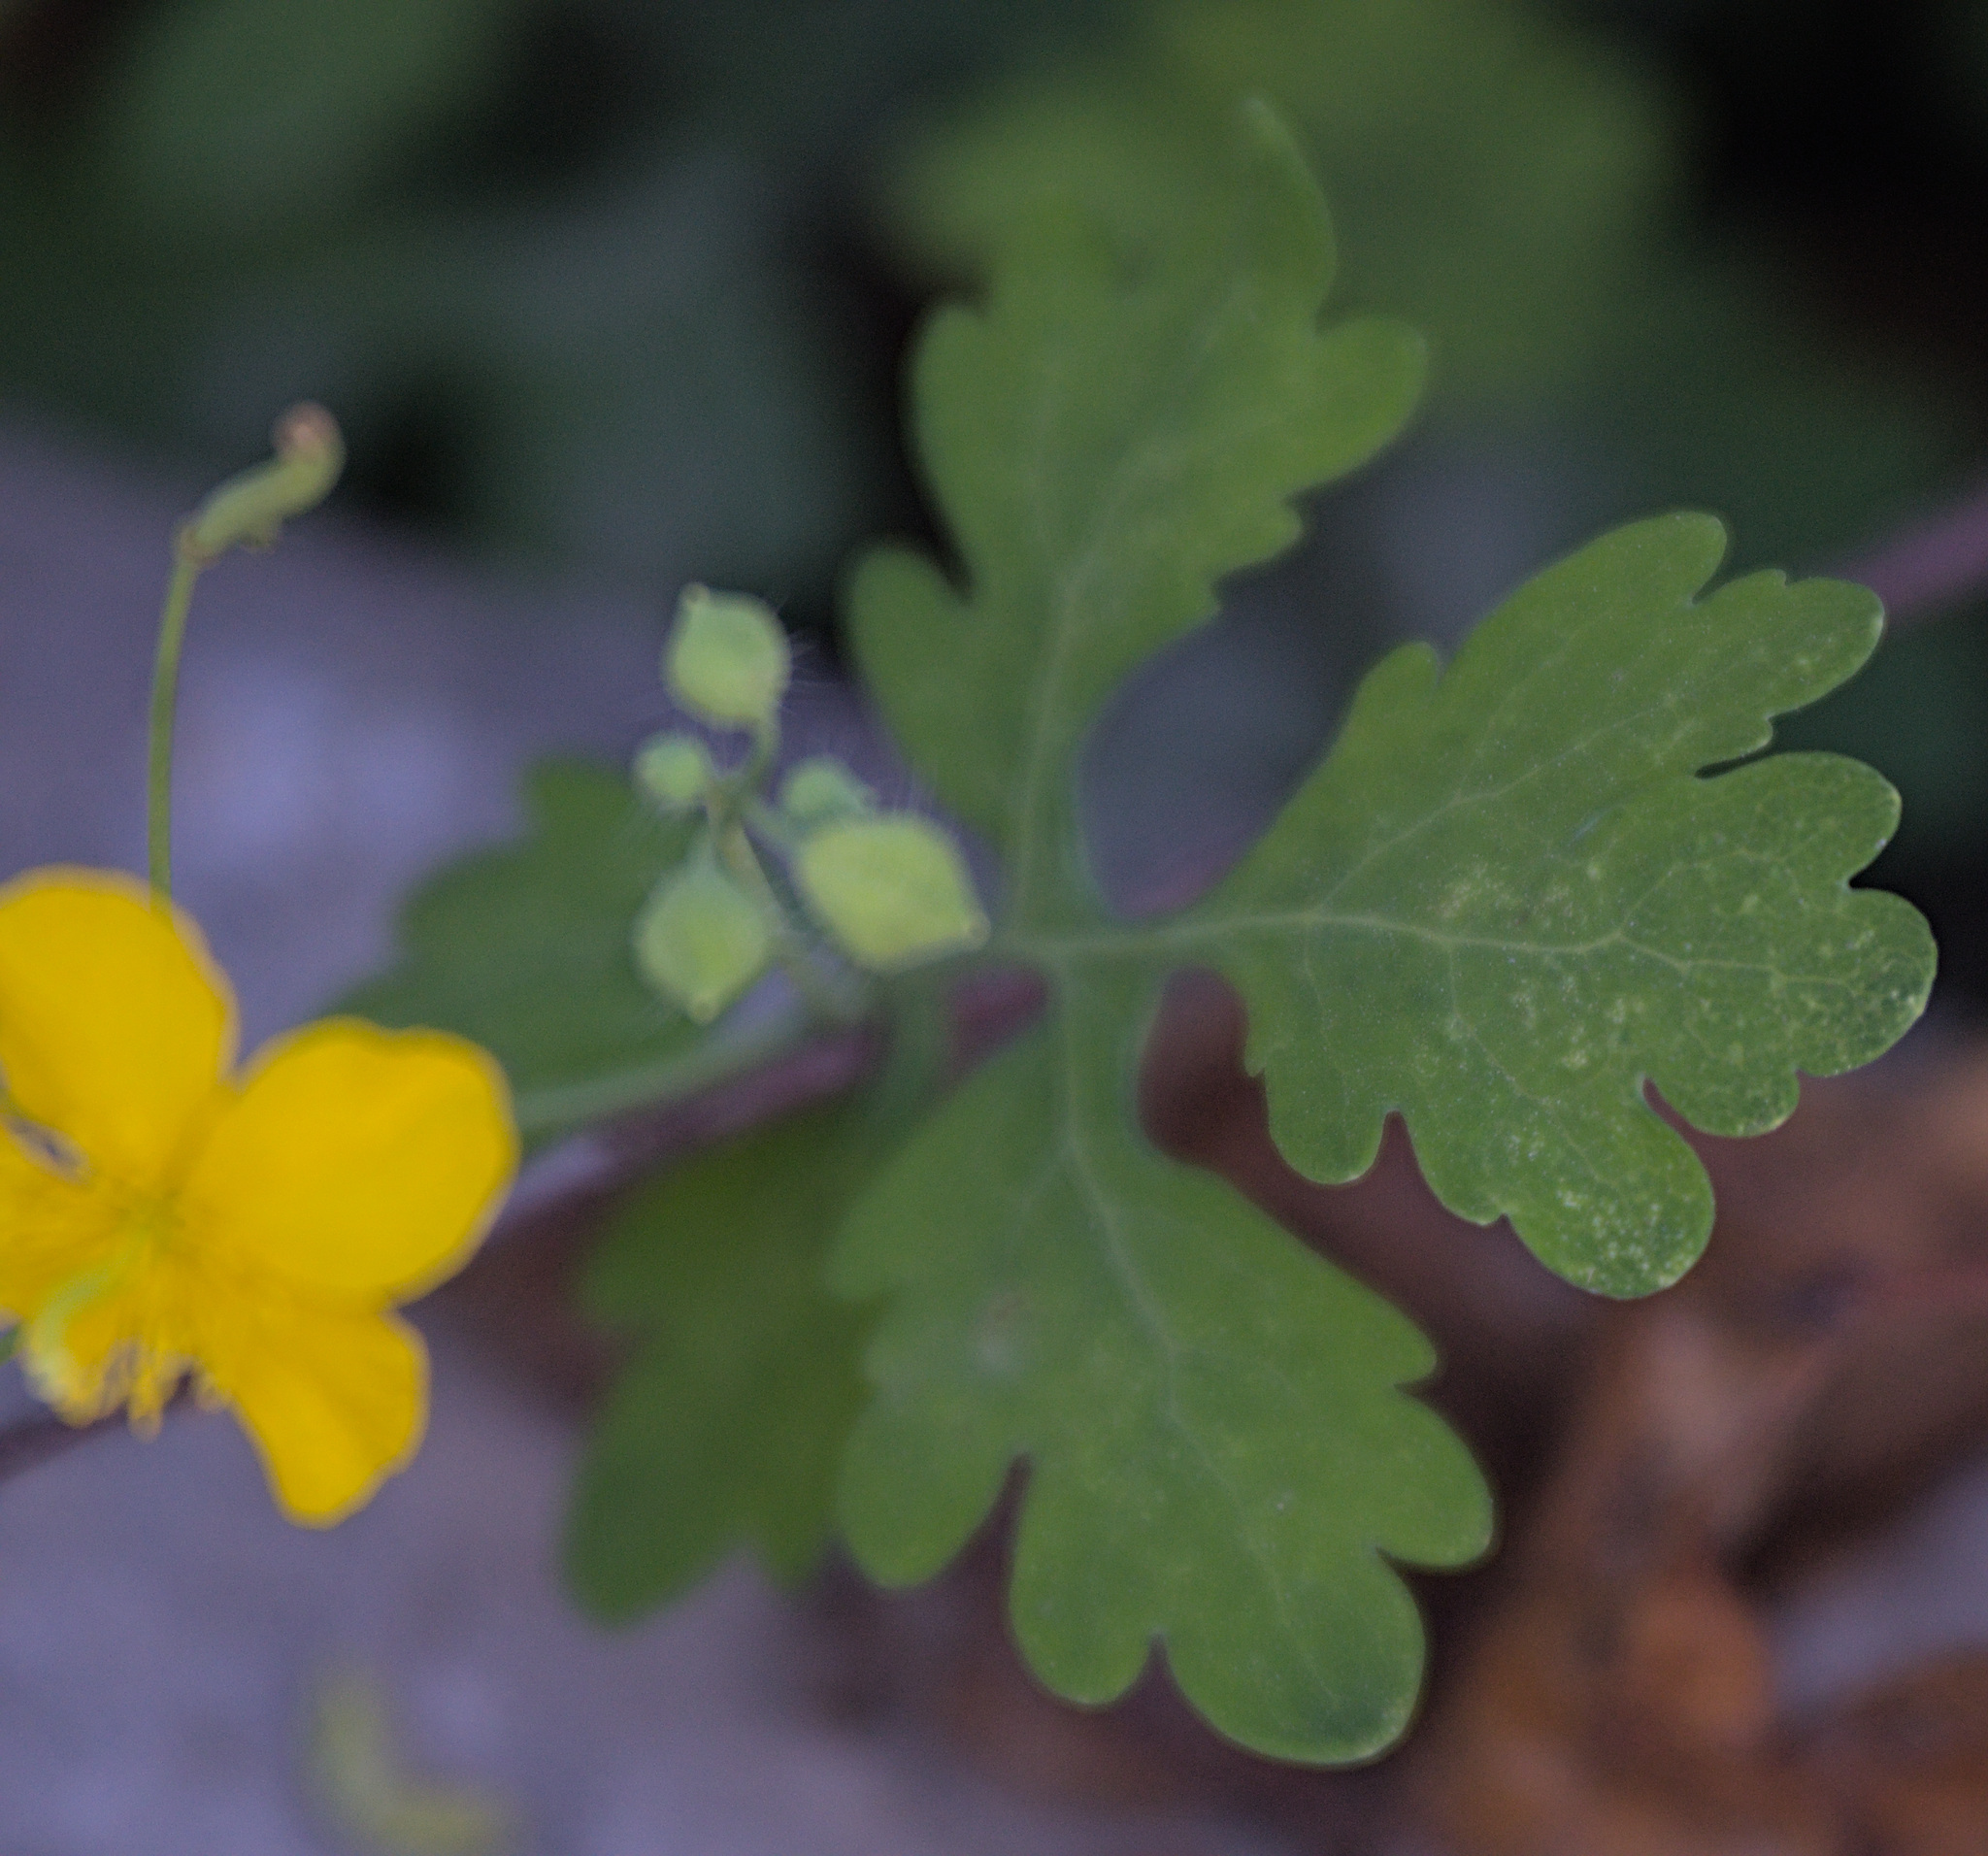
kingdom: Plantae
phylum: Tracheophyta
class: Magnoliopsida
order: Ranunculales
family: Papaveraceae
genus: Chelidonium
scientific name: Chelidonium majus
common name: Greater celandine
